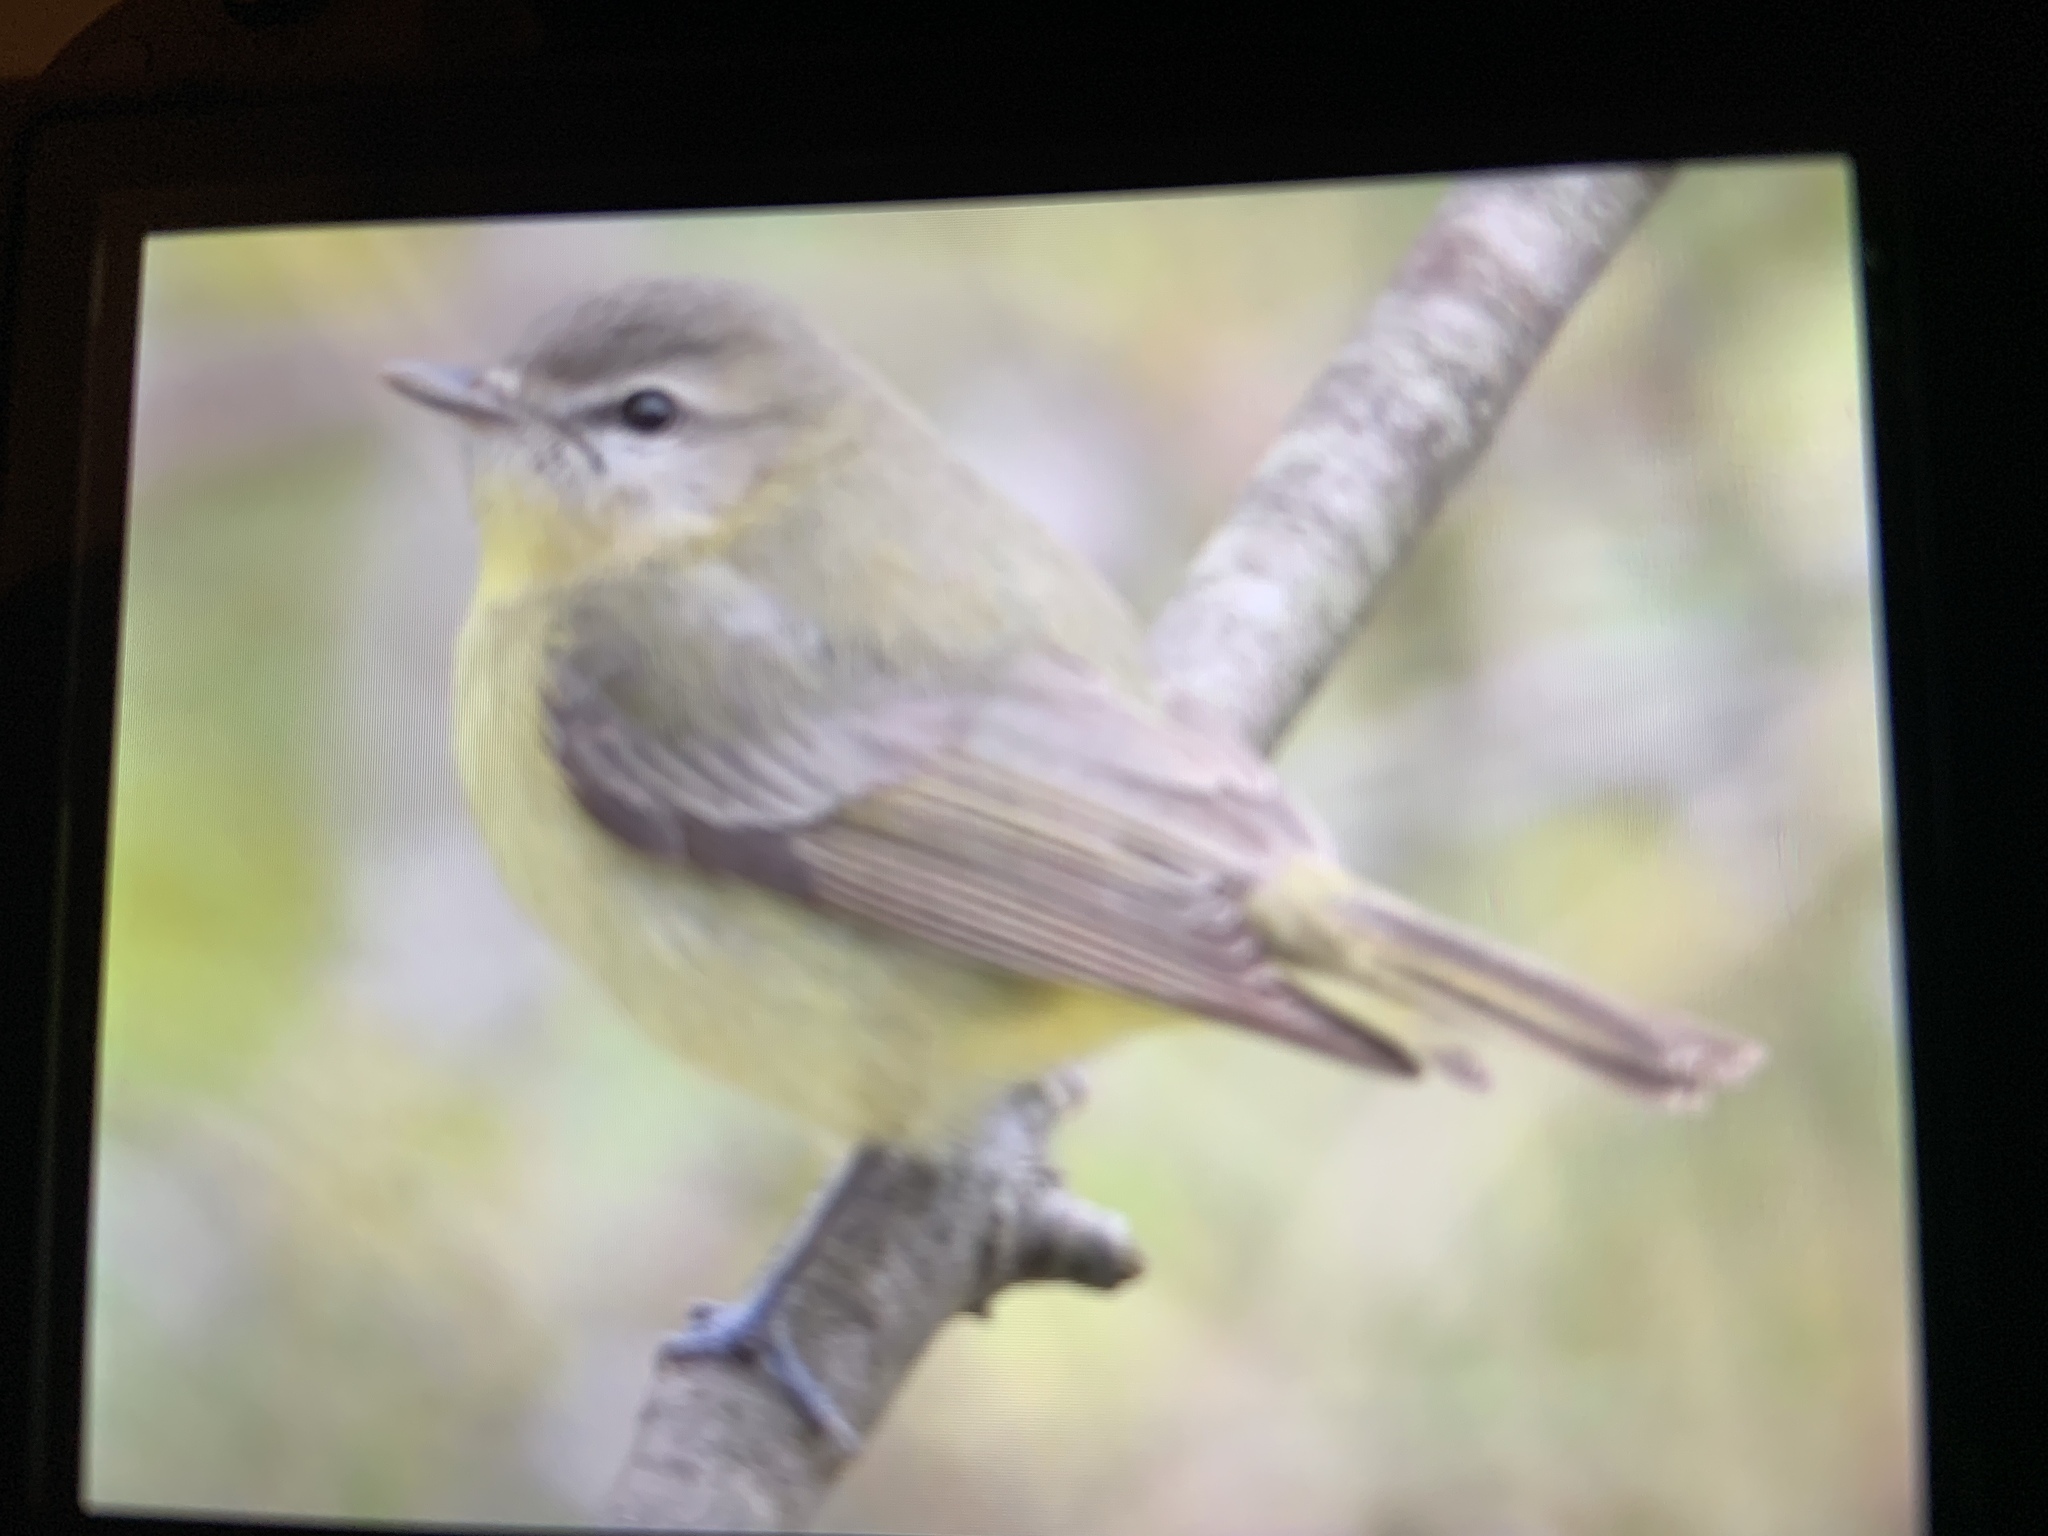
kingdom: Animalia
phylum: Chordata
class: Aves
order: Passeriformes
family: Vireonidae
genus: Vireo
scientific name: Vireo philadelphicus
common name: Philadelphia vireo
